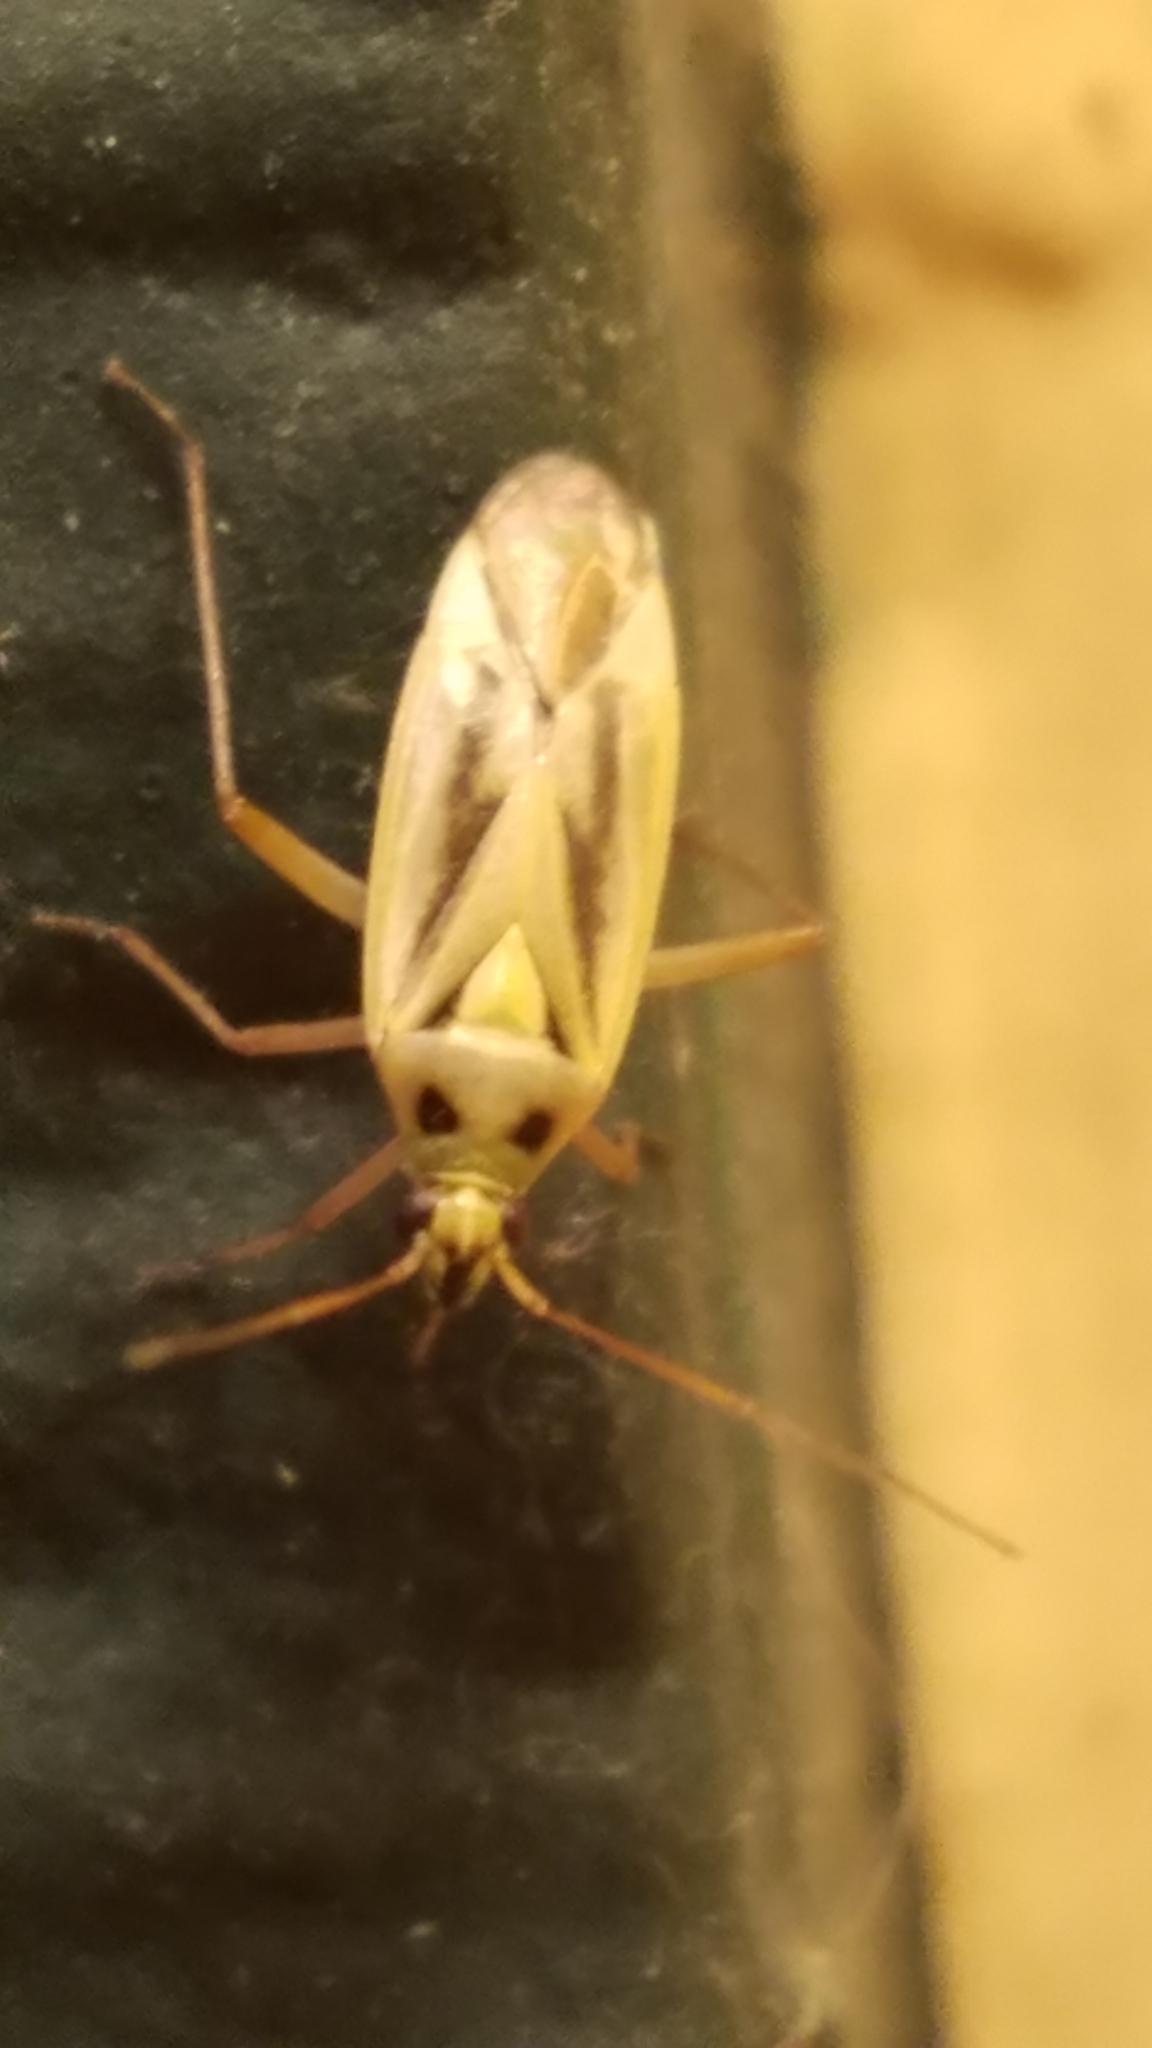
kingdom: Animalia
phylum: Arthropoda
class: Insecta
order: Hemiptera
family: Miridae
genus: Stenotus
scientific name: Stenotus binotatus
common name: Plant bug
